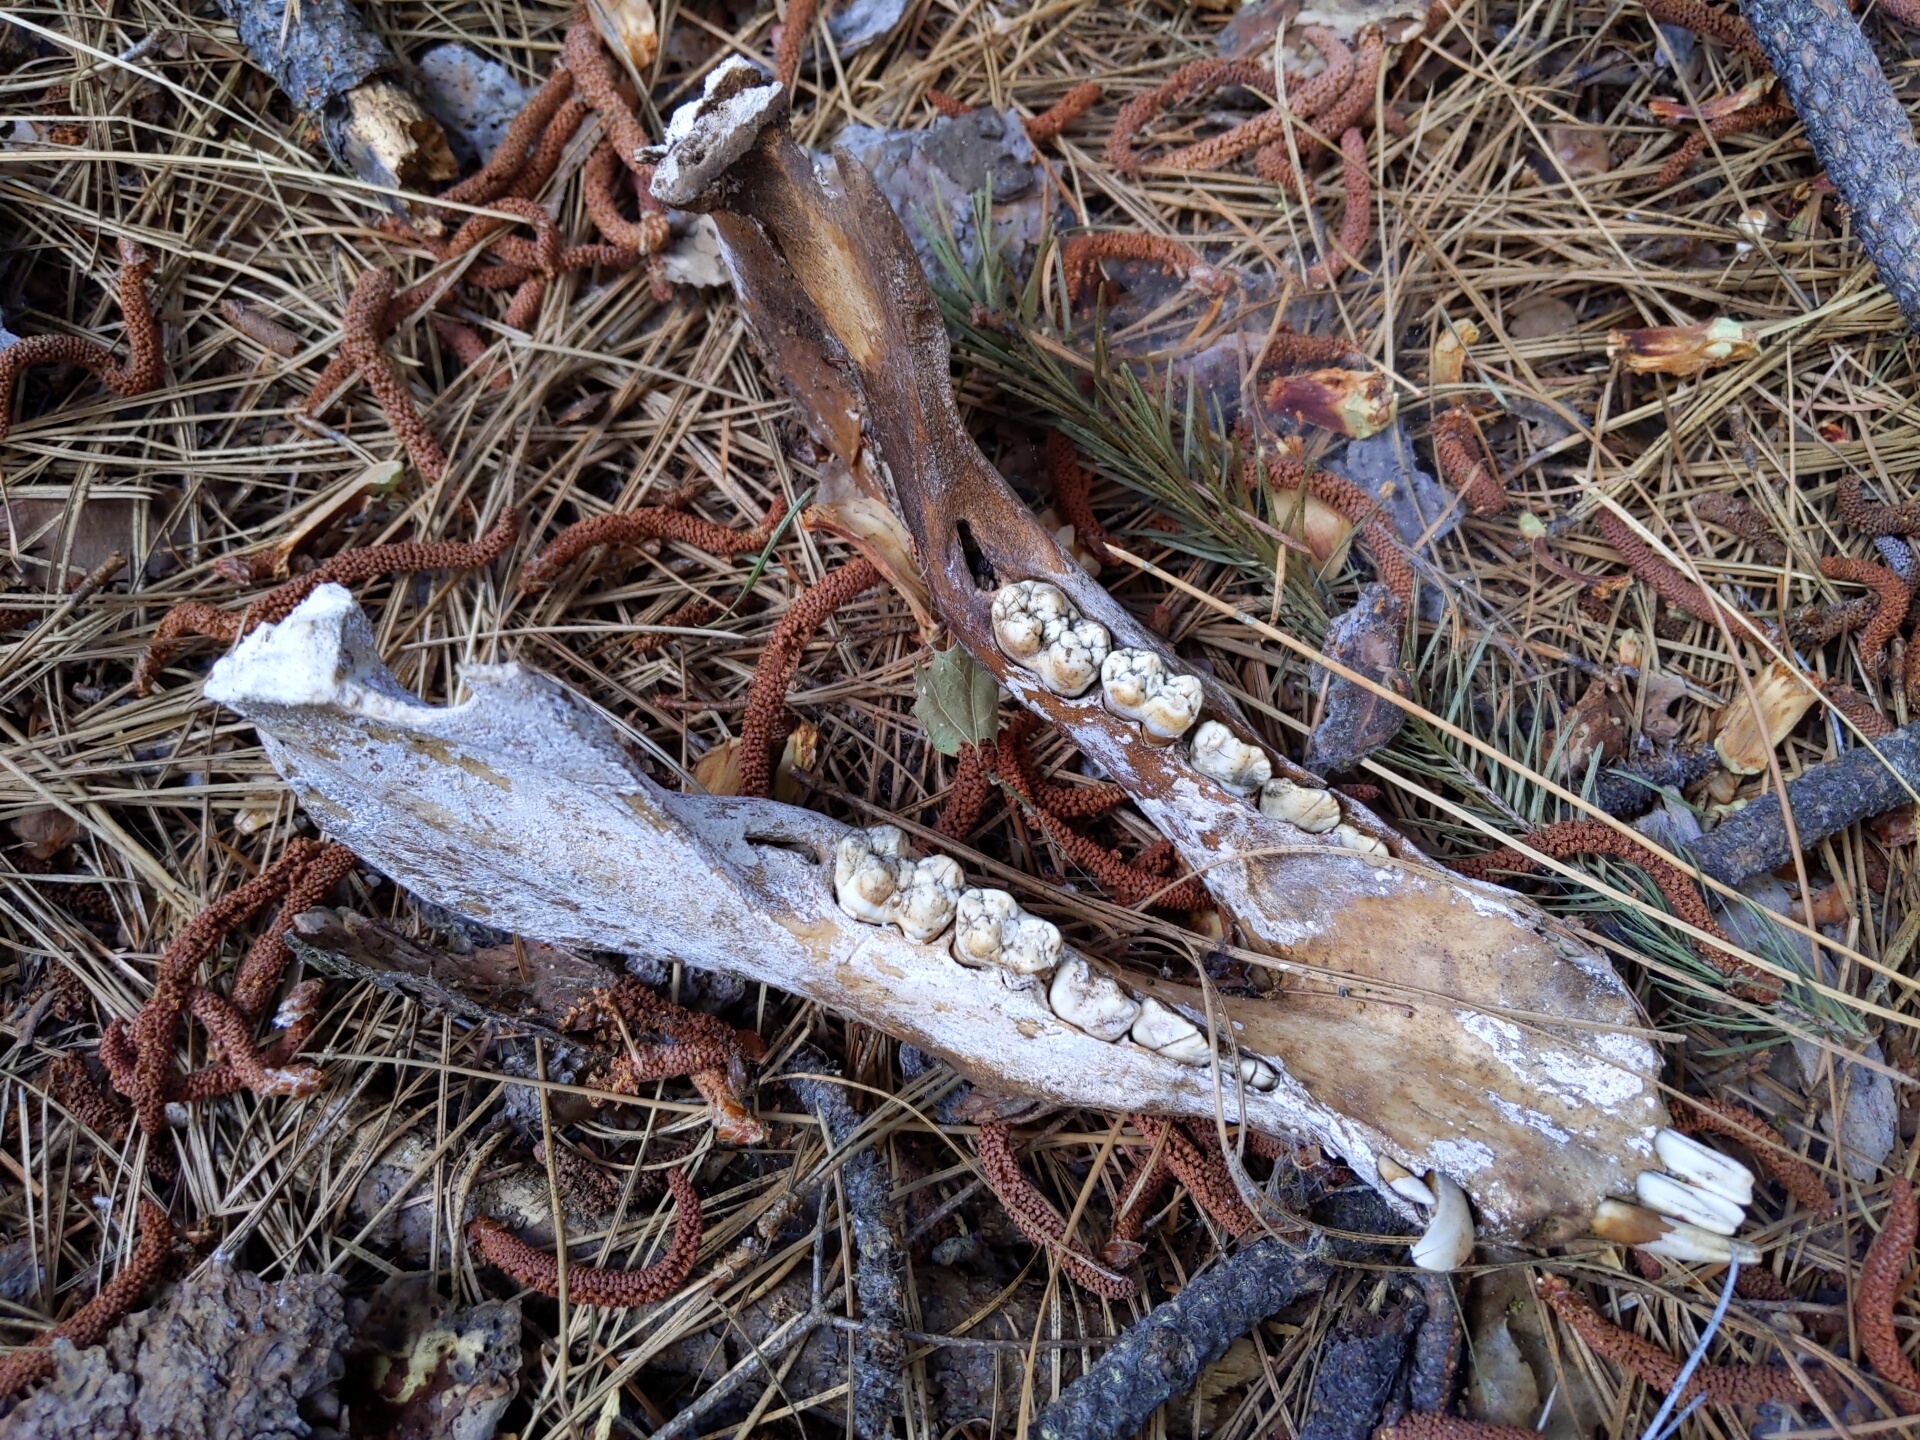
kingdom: Animalia
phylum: Chordata
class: Mammalia
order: Artiodactyla
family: Suidae
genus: Sus
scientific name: Sus scrofa
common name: Wild boar
